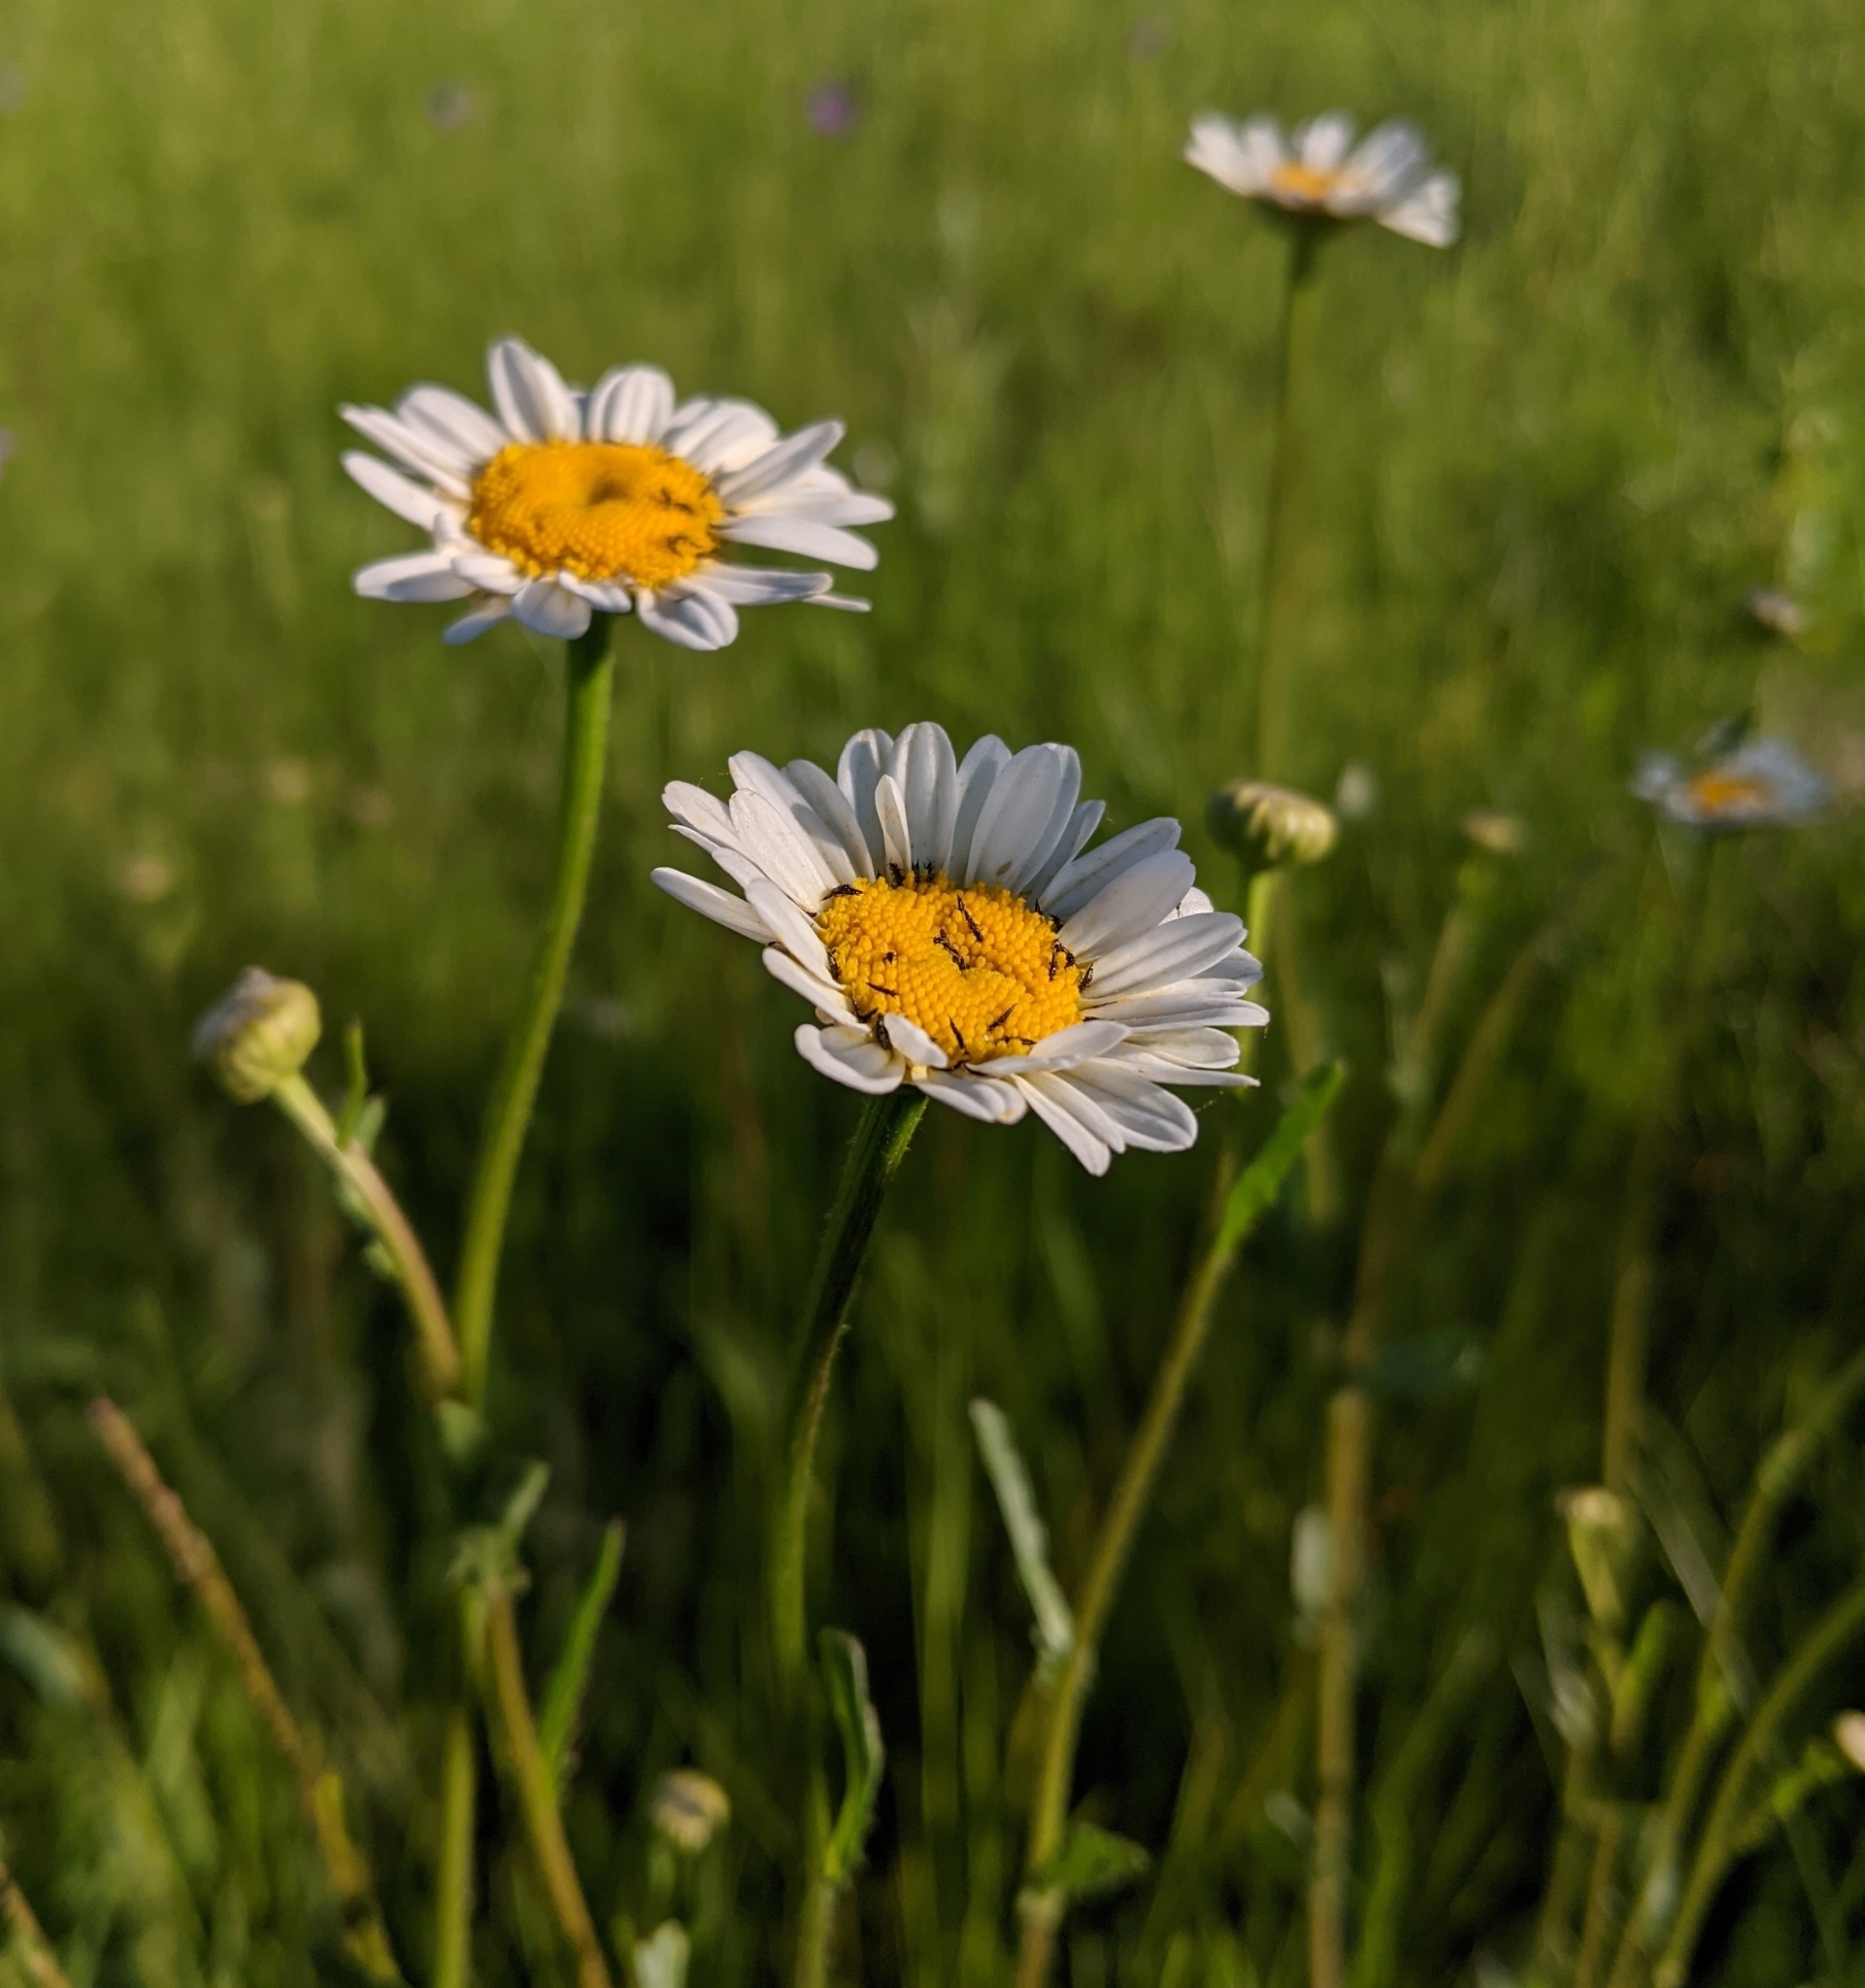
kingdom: Plantae
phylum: Tracheophyta
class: Magnoliopsida
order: Asterales
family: Asteraceae
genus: Leucanthemum
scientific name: Leucanthemum vulgare
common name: Oxeye daisy
